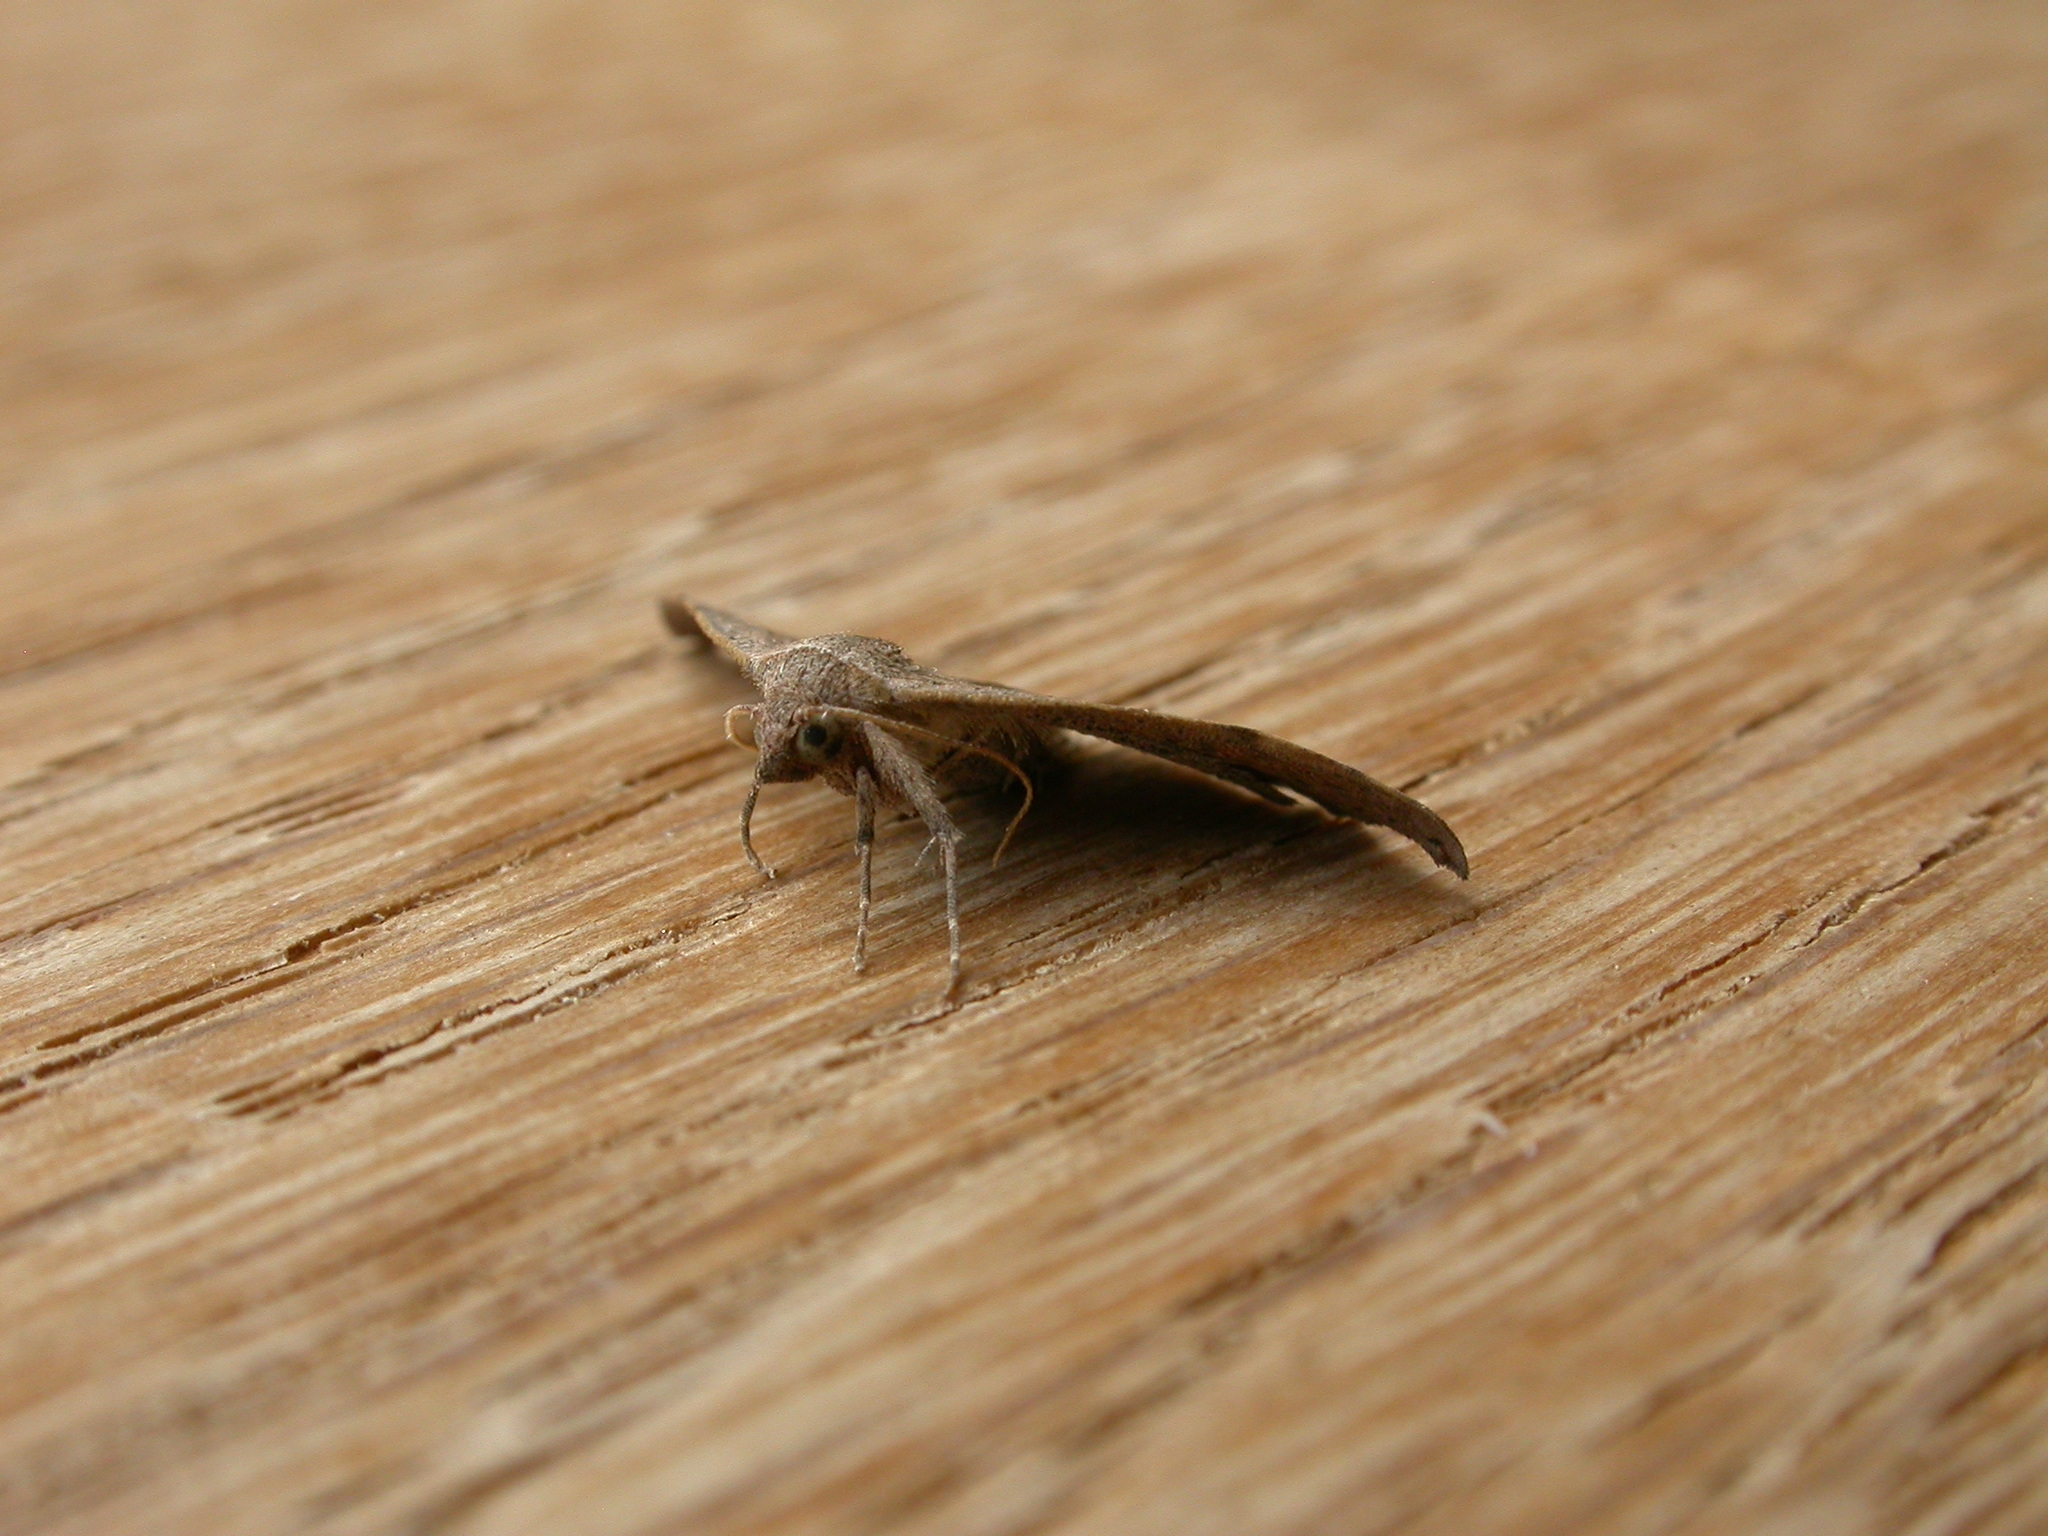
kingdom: Animalia
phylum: Arthropoda
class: Insecta
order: Lepidoptera
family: Erebidae
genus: Laspeyria
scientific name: Laspeyria concavata
